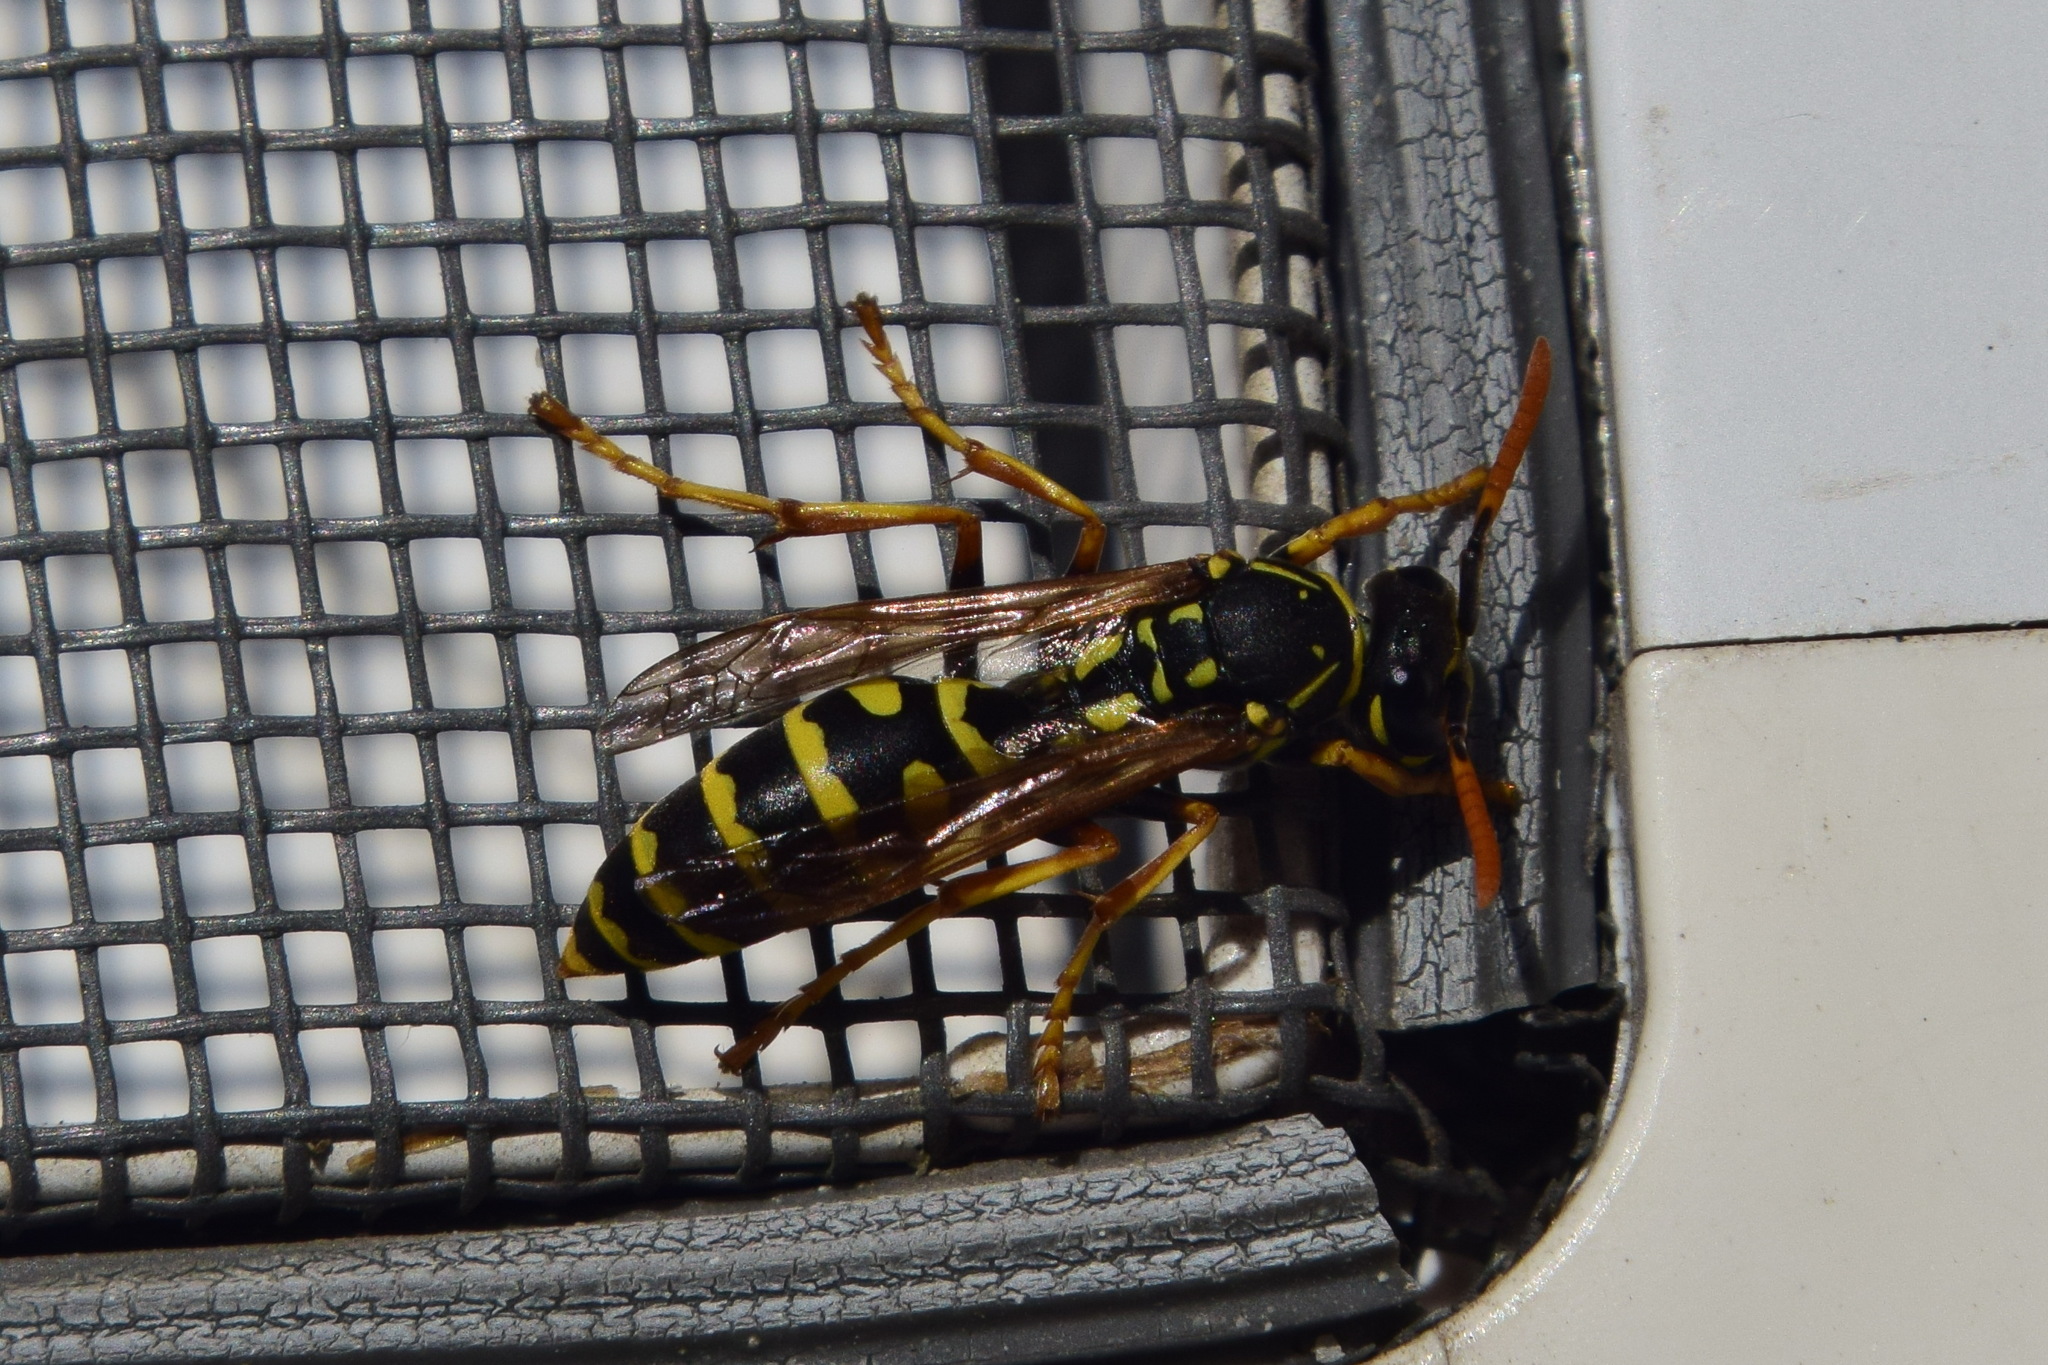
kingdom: Animalia
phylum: Arthropoda
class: Insecta
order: Hymenoptera
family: Eumenidae
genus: Polistes
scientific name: Polistes dominula
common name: Paper wasp
